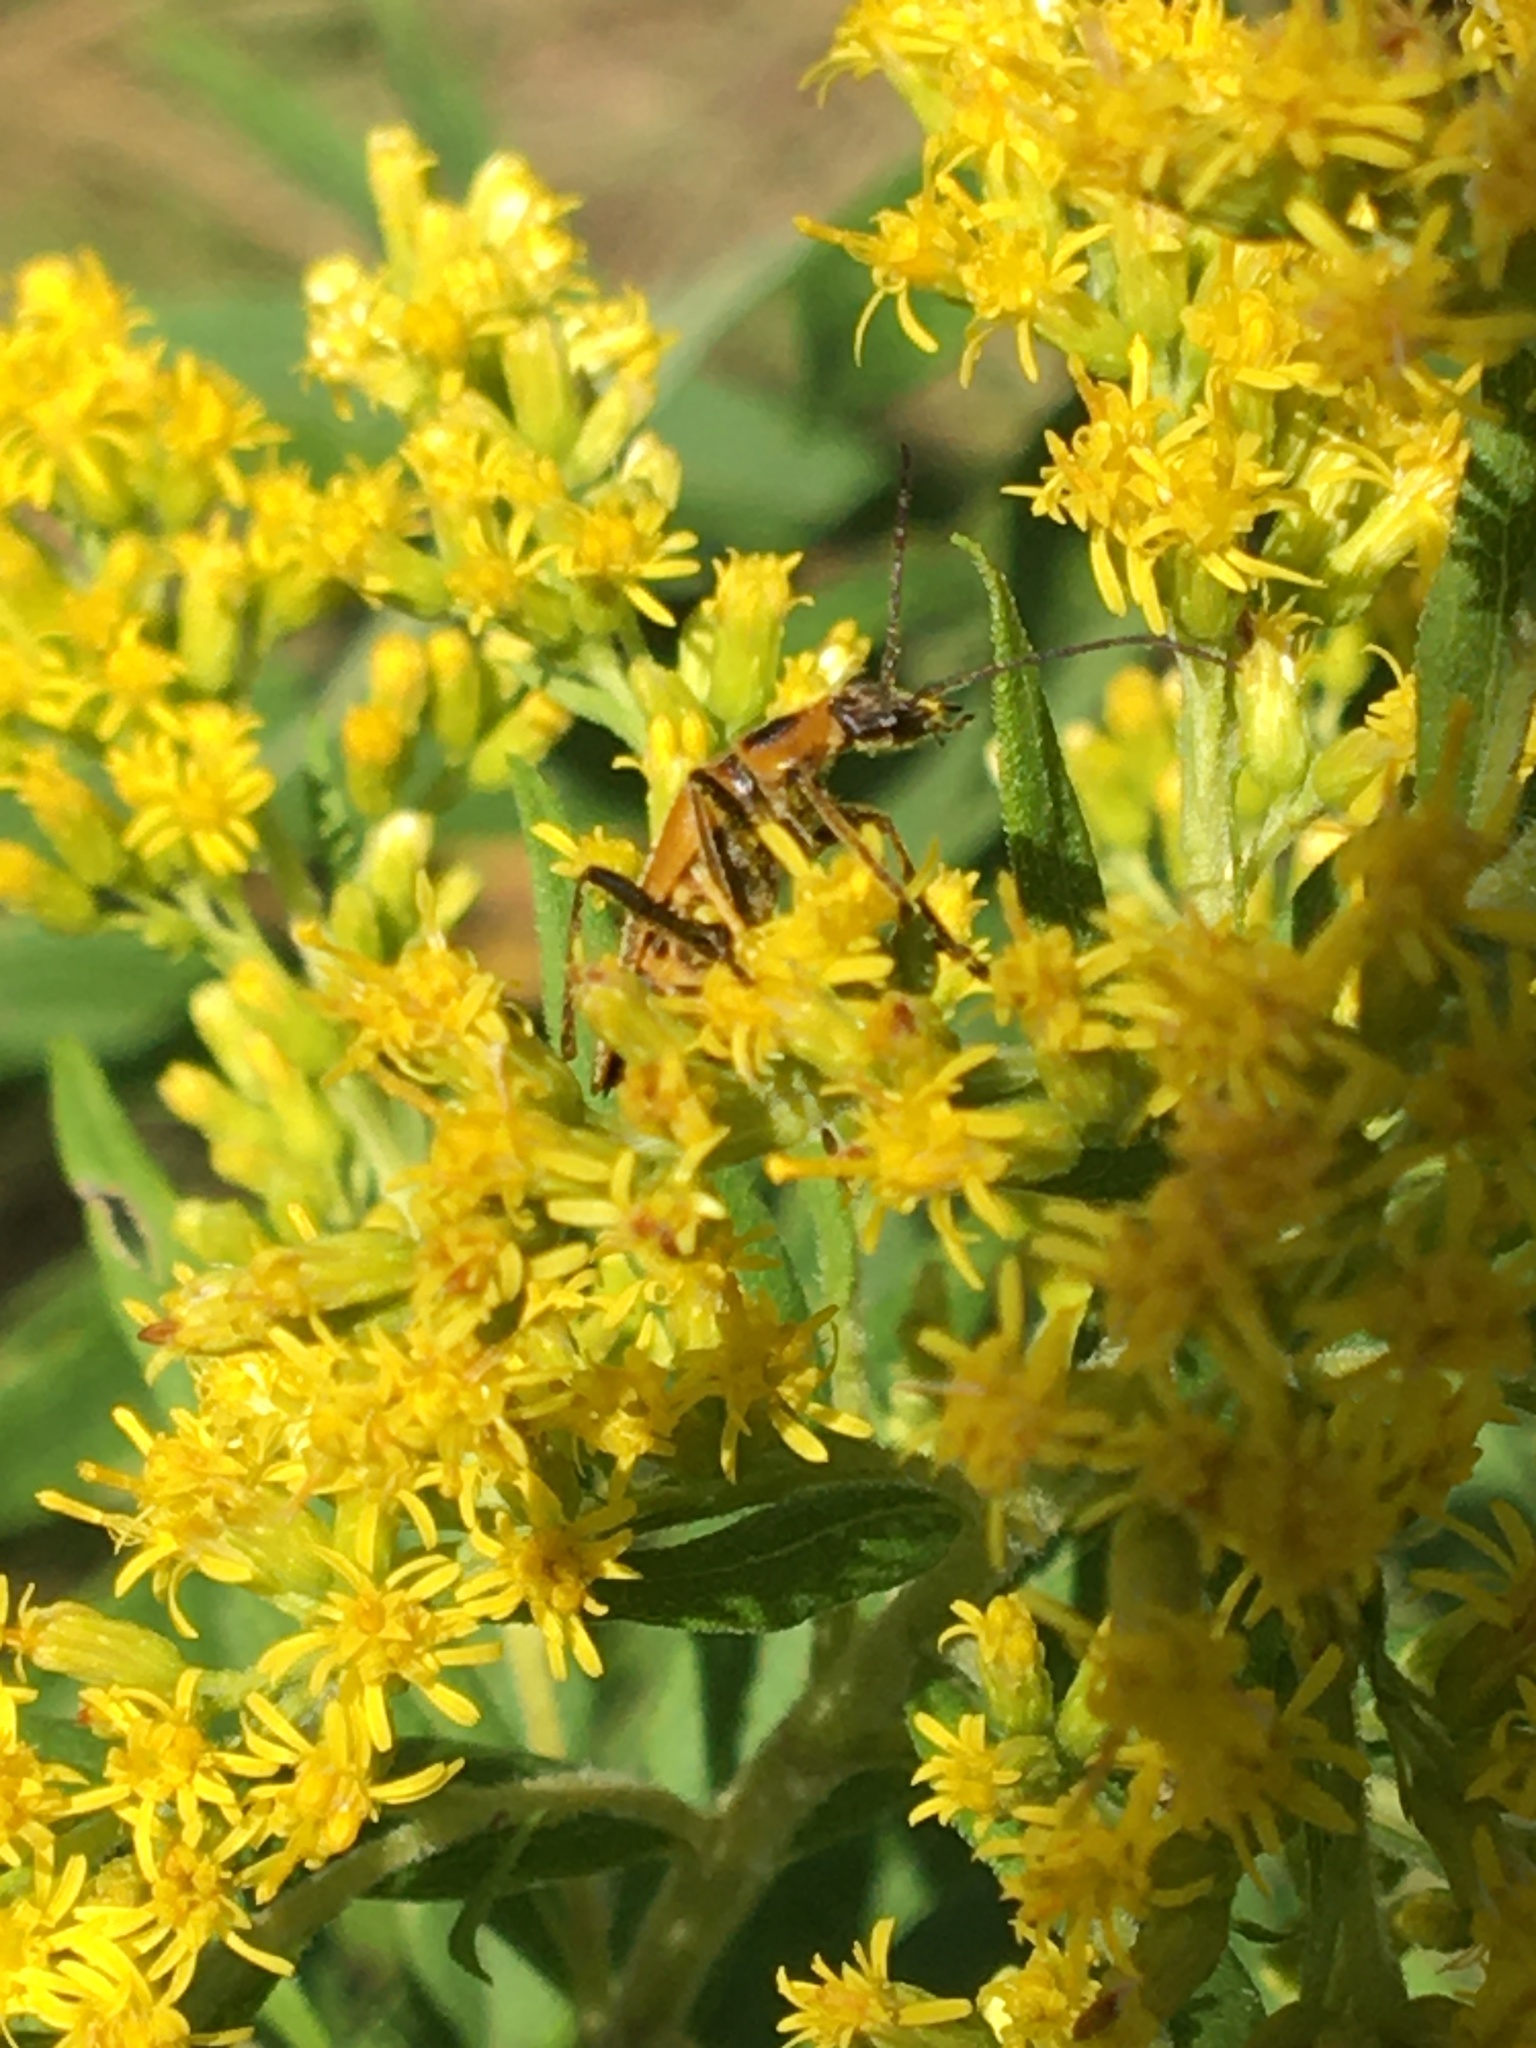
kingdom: Animalia
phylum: Arthropoda
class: Insecta
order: Coleoptera
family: Cantharidae
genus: Chauliognathus
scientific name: Chauliognathus pensylvanicus
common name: Goldenrod soldier beetle
